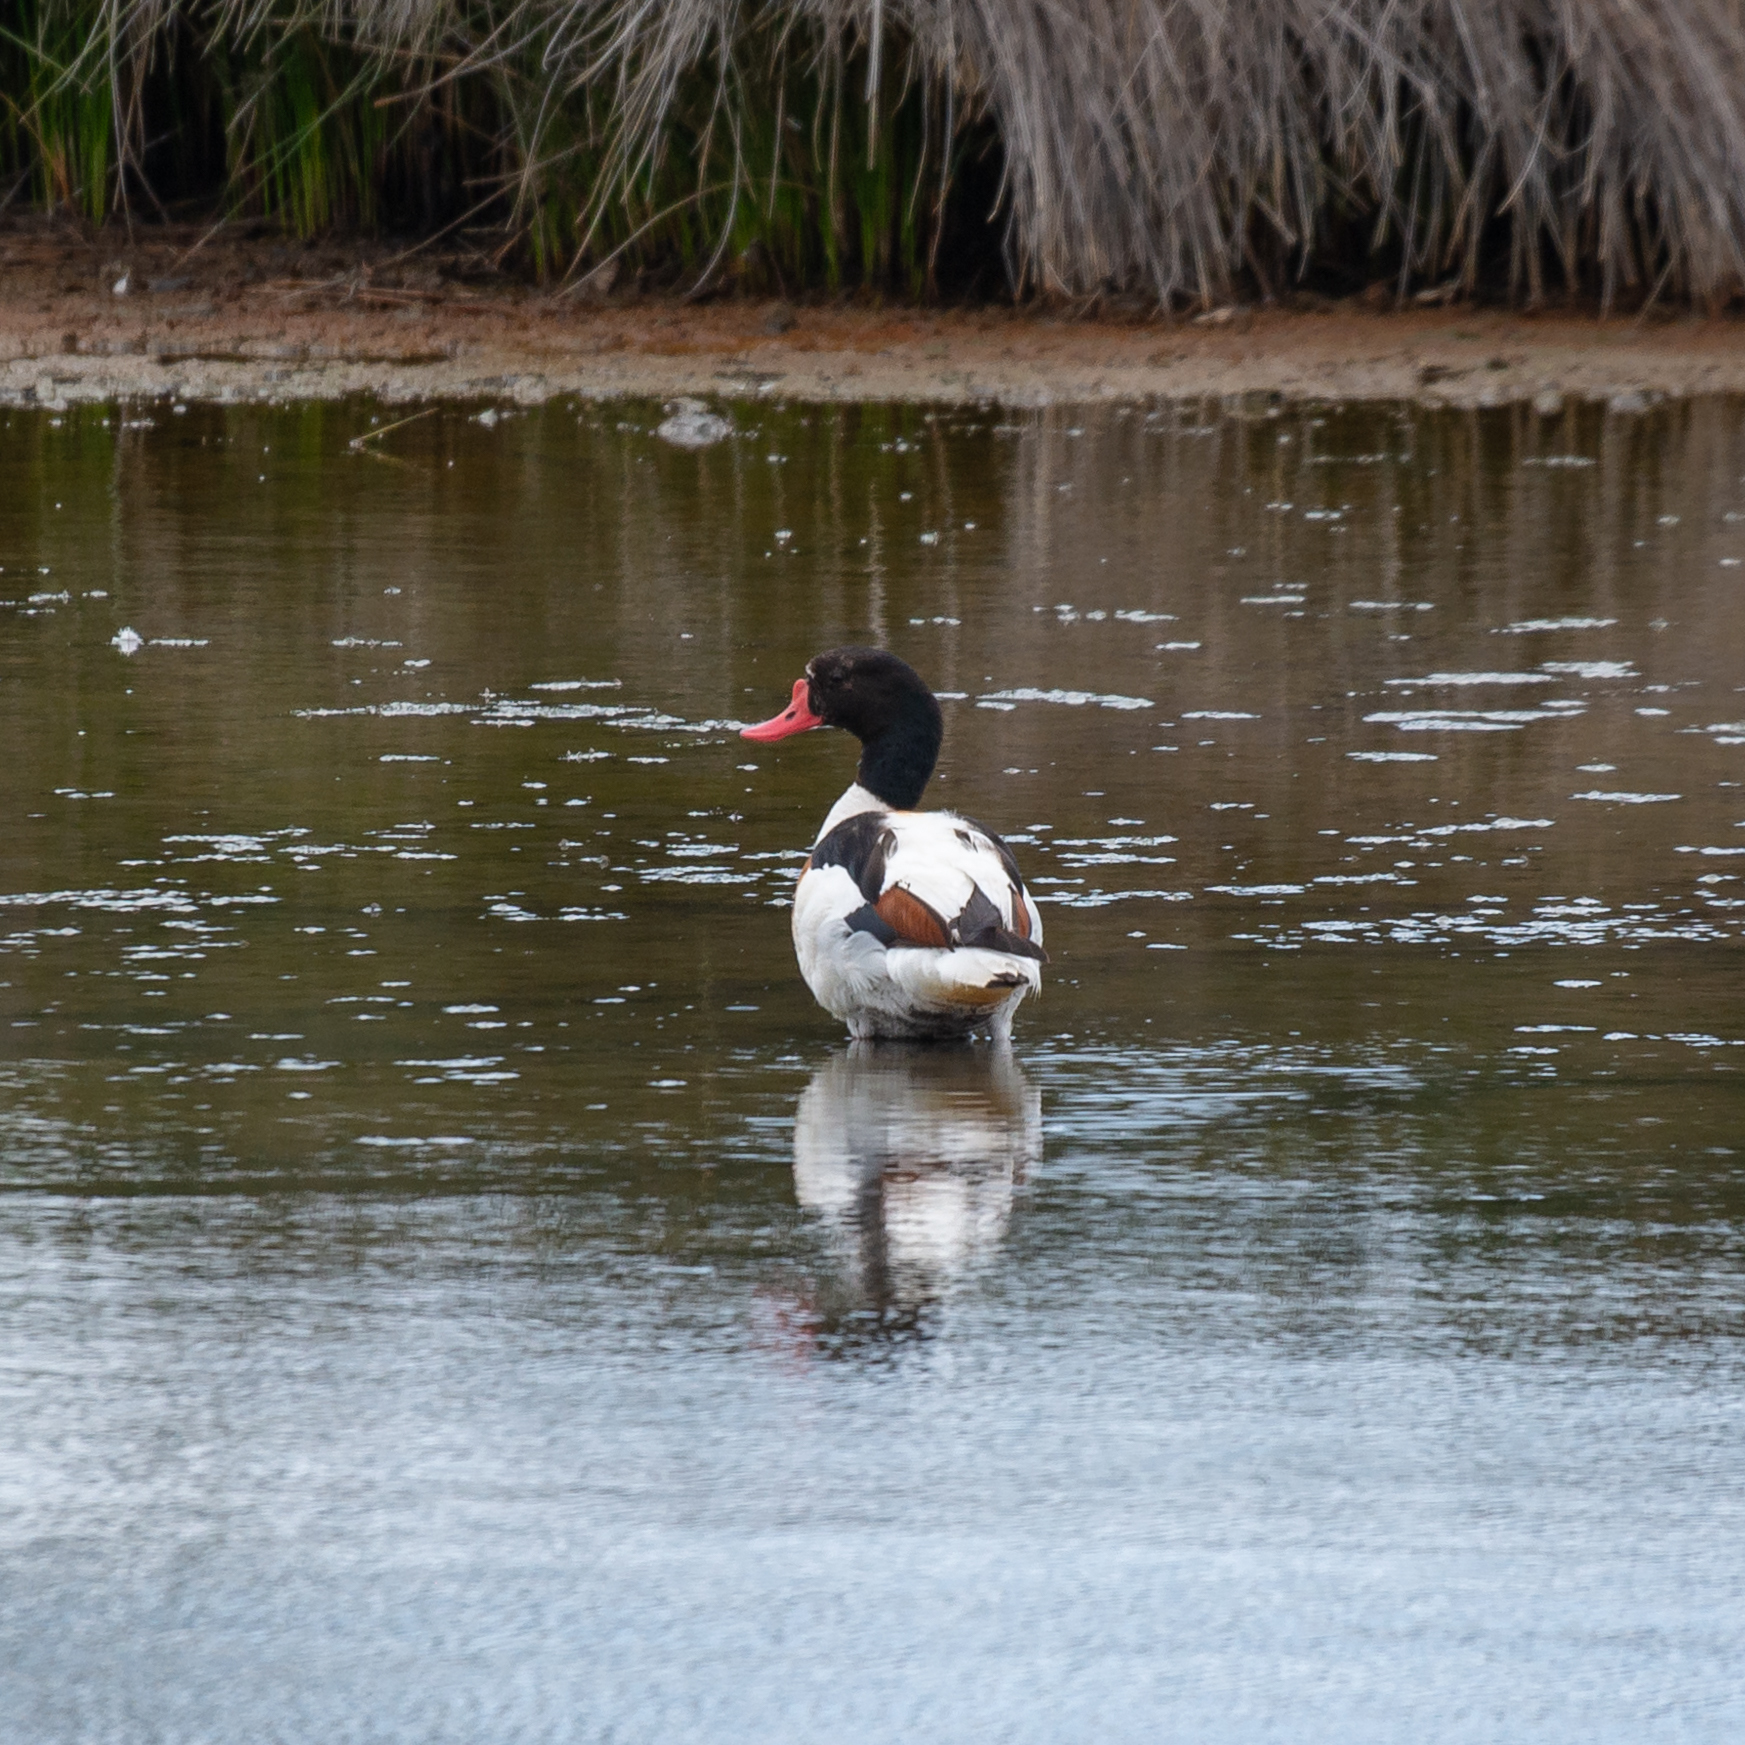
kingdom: Animalia
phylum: Chordata
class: Aves
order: Anseriformes
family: Anatidae
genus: Tadorna
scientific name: Tadorna tadorna
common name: Common shelduck
